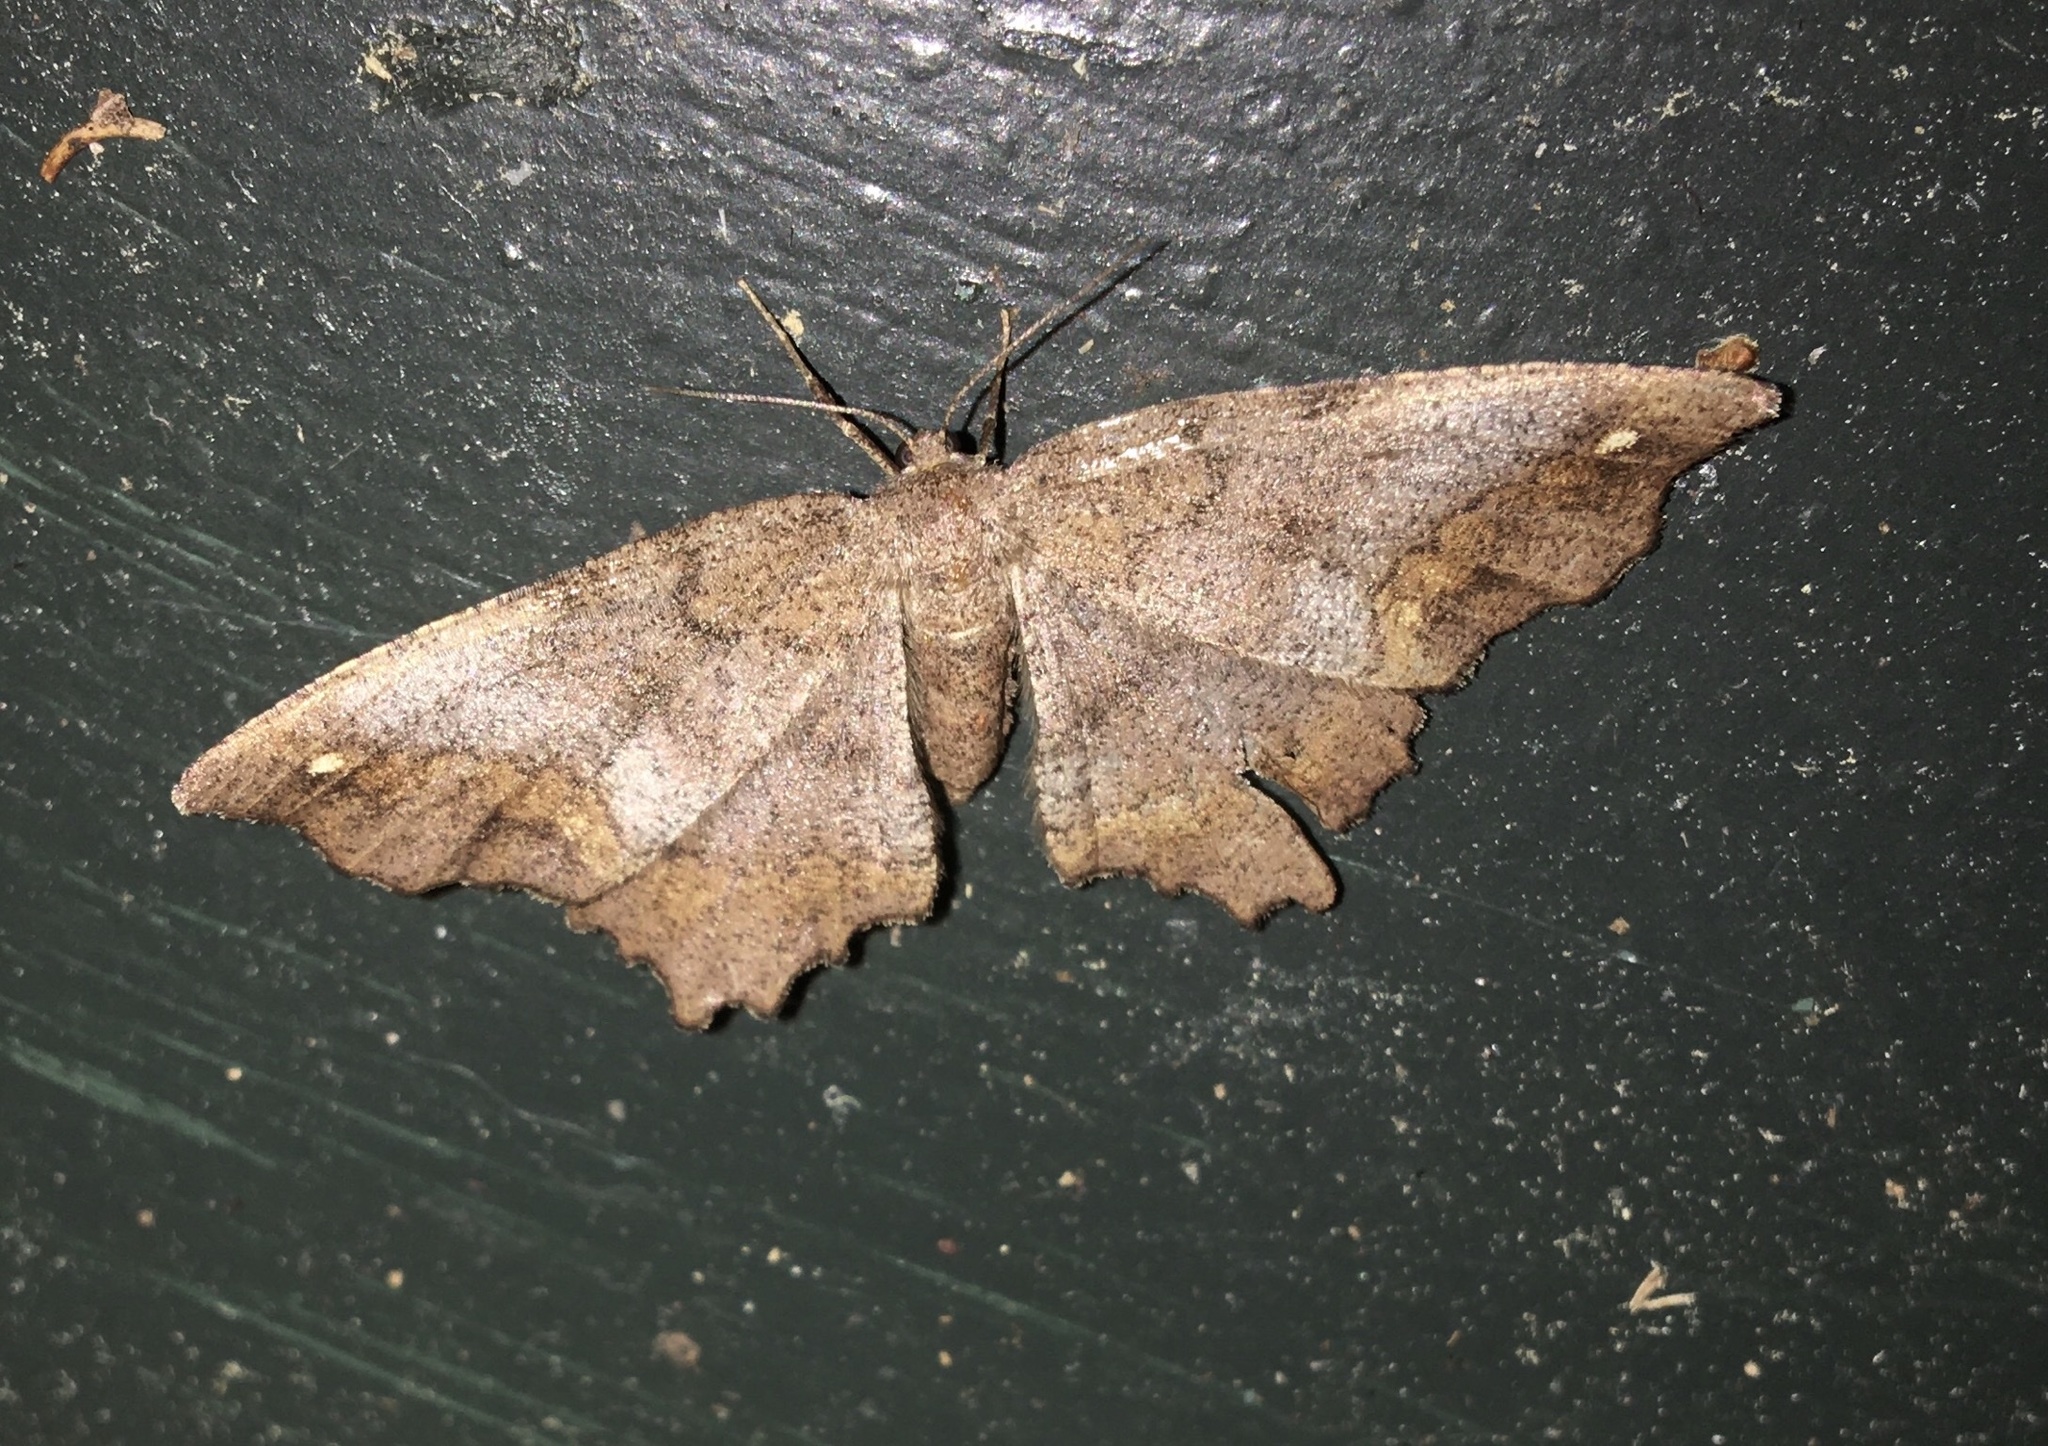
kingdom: Animalia
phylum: Arthropoda
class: Insecta
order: Lepidoptera
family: Geometridae
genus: Hypagyrtis
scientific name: Hypagyrtis unipunctata
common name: One-spotted variant
